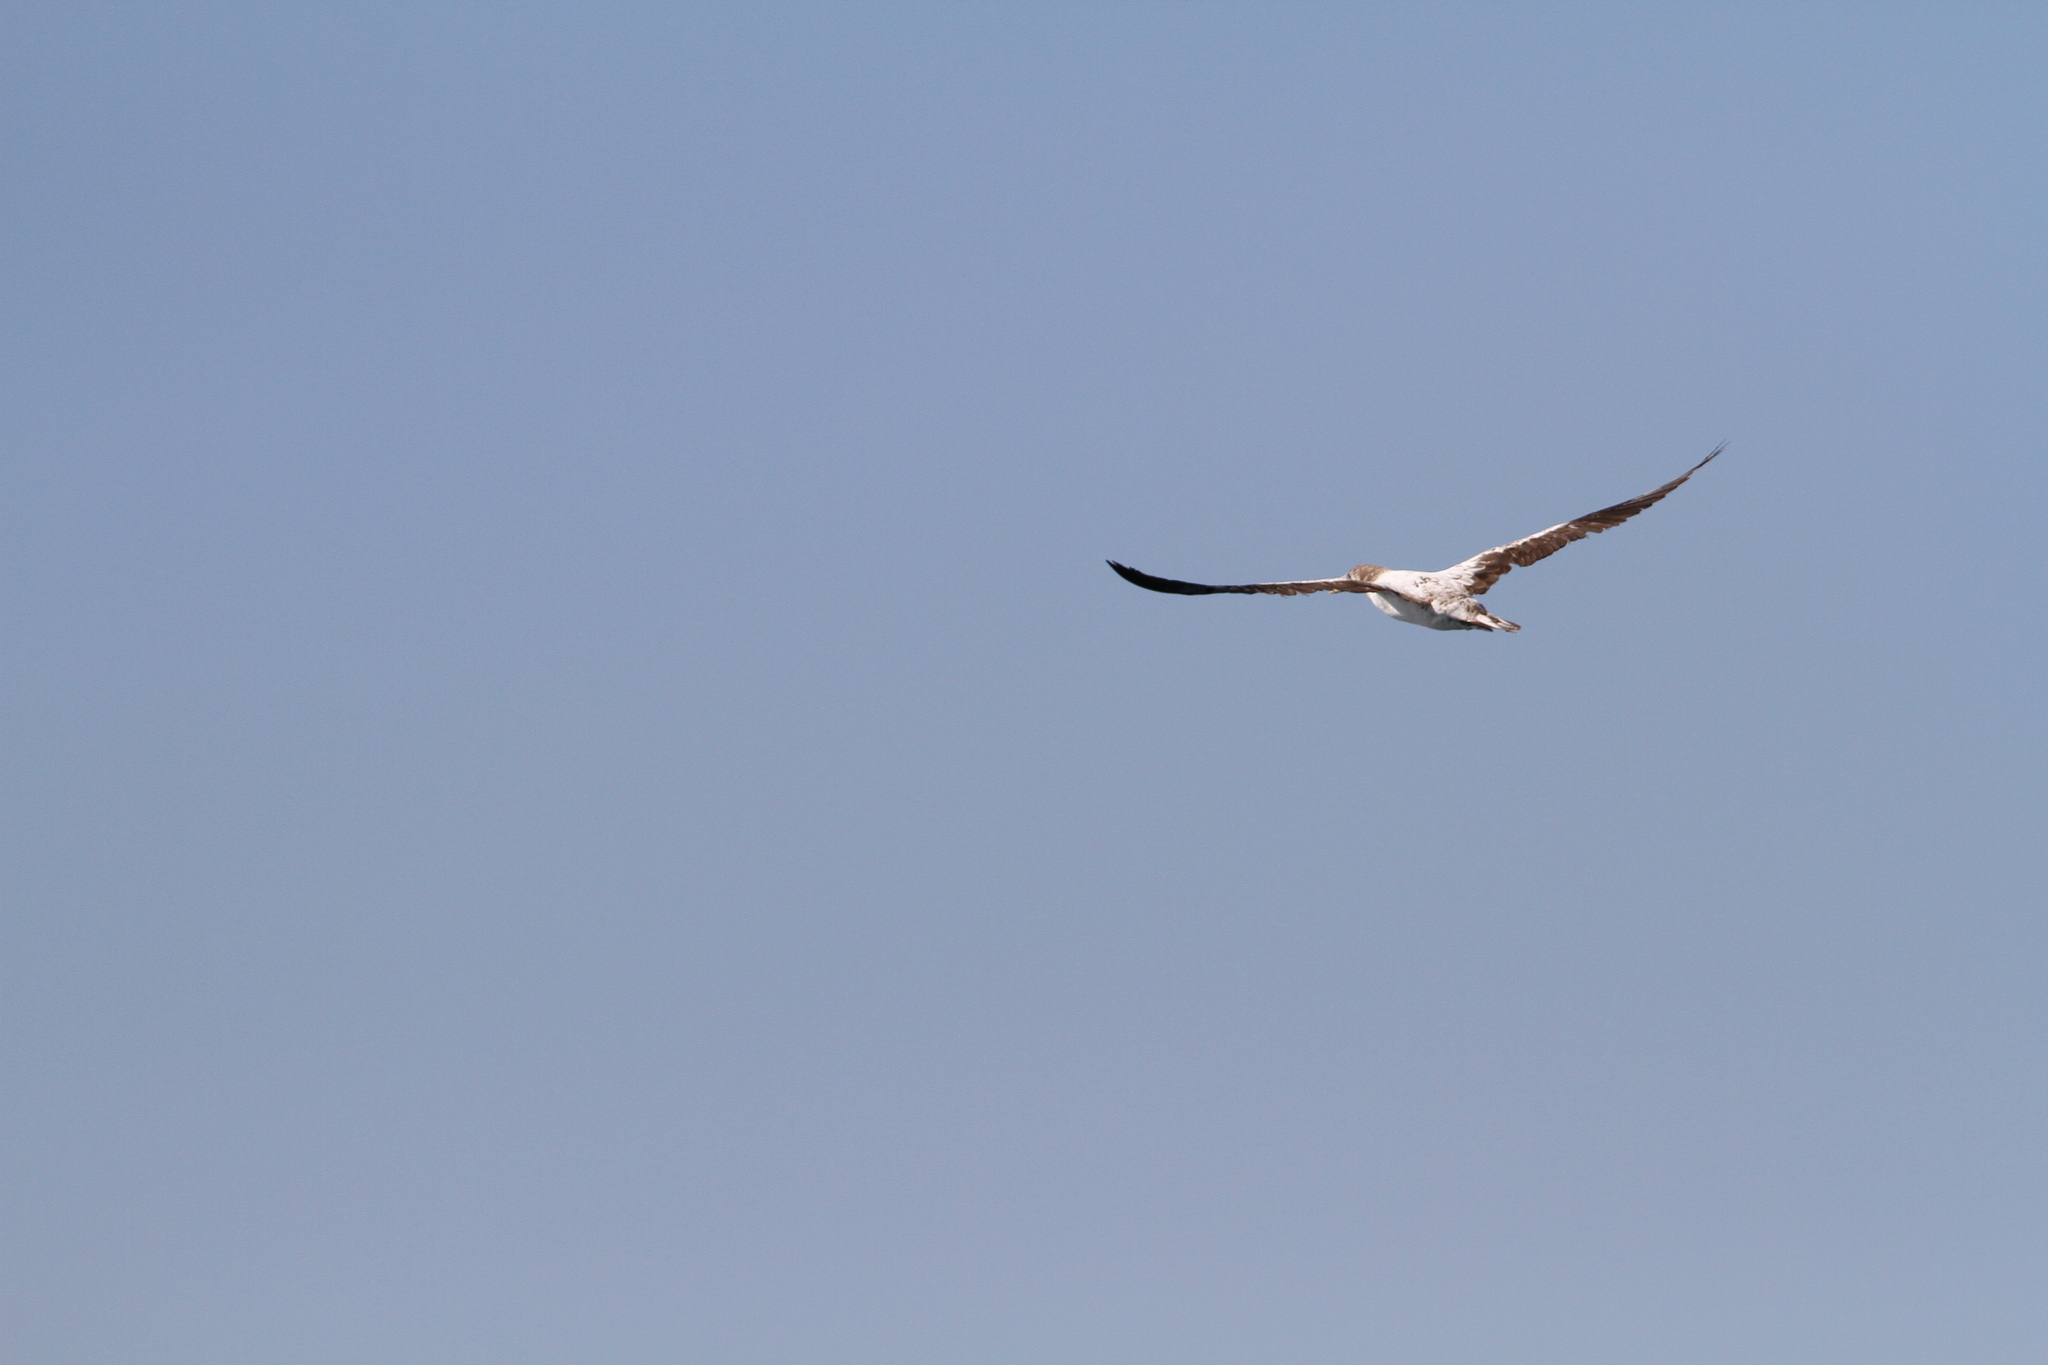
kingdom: Animalia
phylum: Chordata
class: Aves
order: Suliformes
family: Sulidae
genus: Sula
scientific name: Sula granti
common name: Nazca booby
